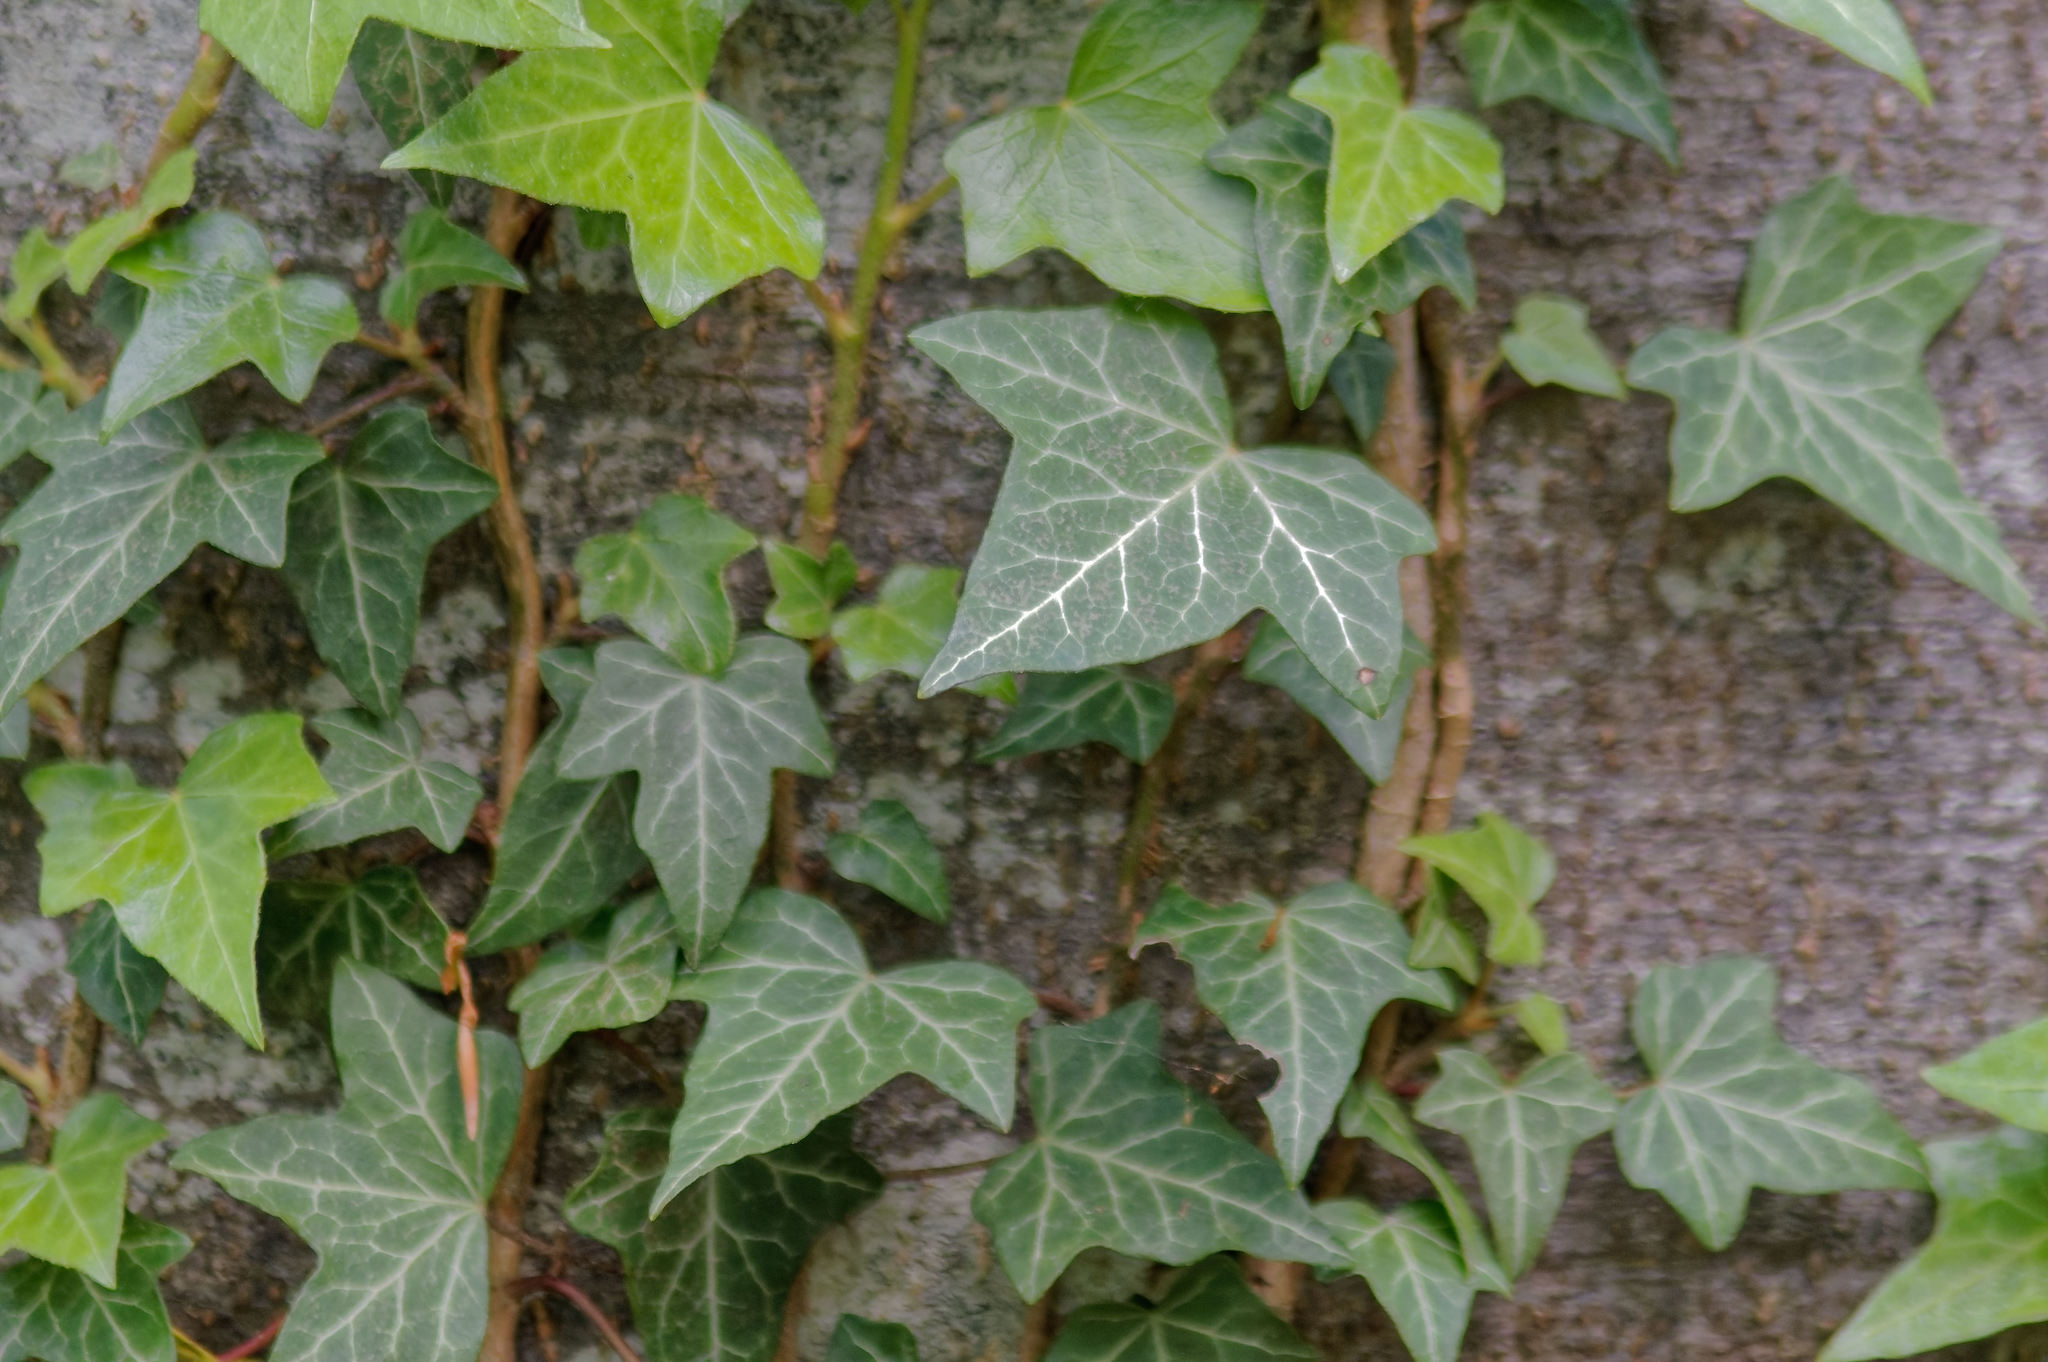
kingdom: Plantae
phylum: Tracheophyta
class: Magnoliopsida
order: Apiales
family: Araliaceae
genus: Hedera
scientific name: Hedera helix
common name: Ivy
